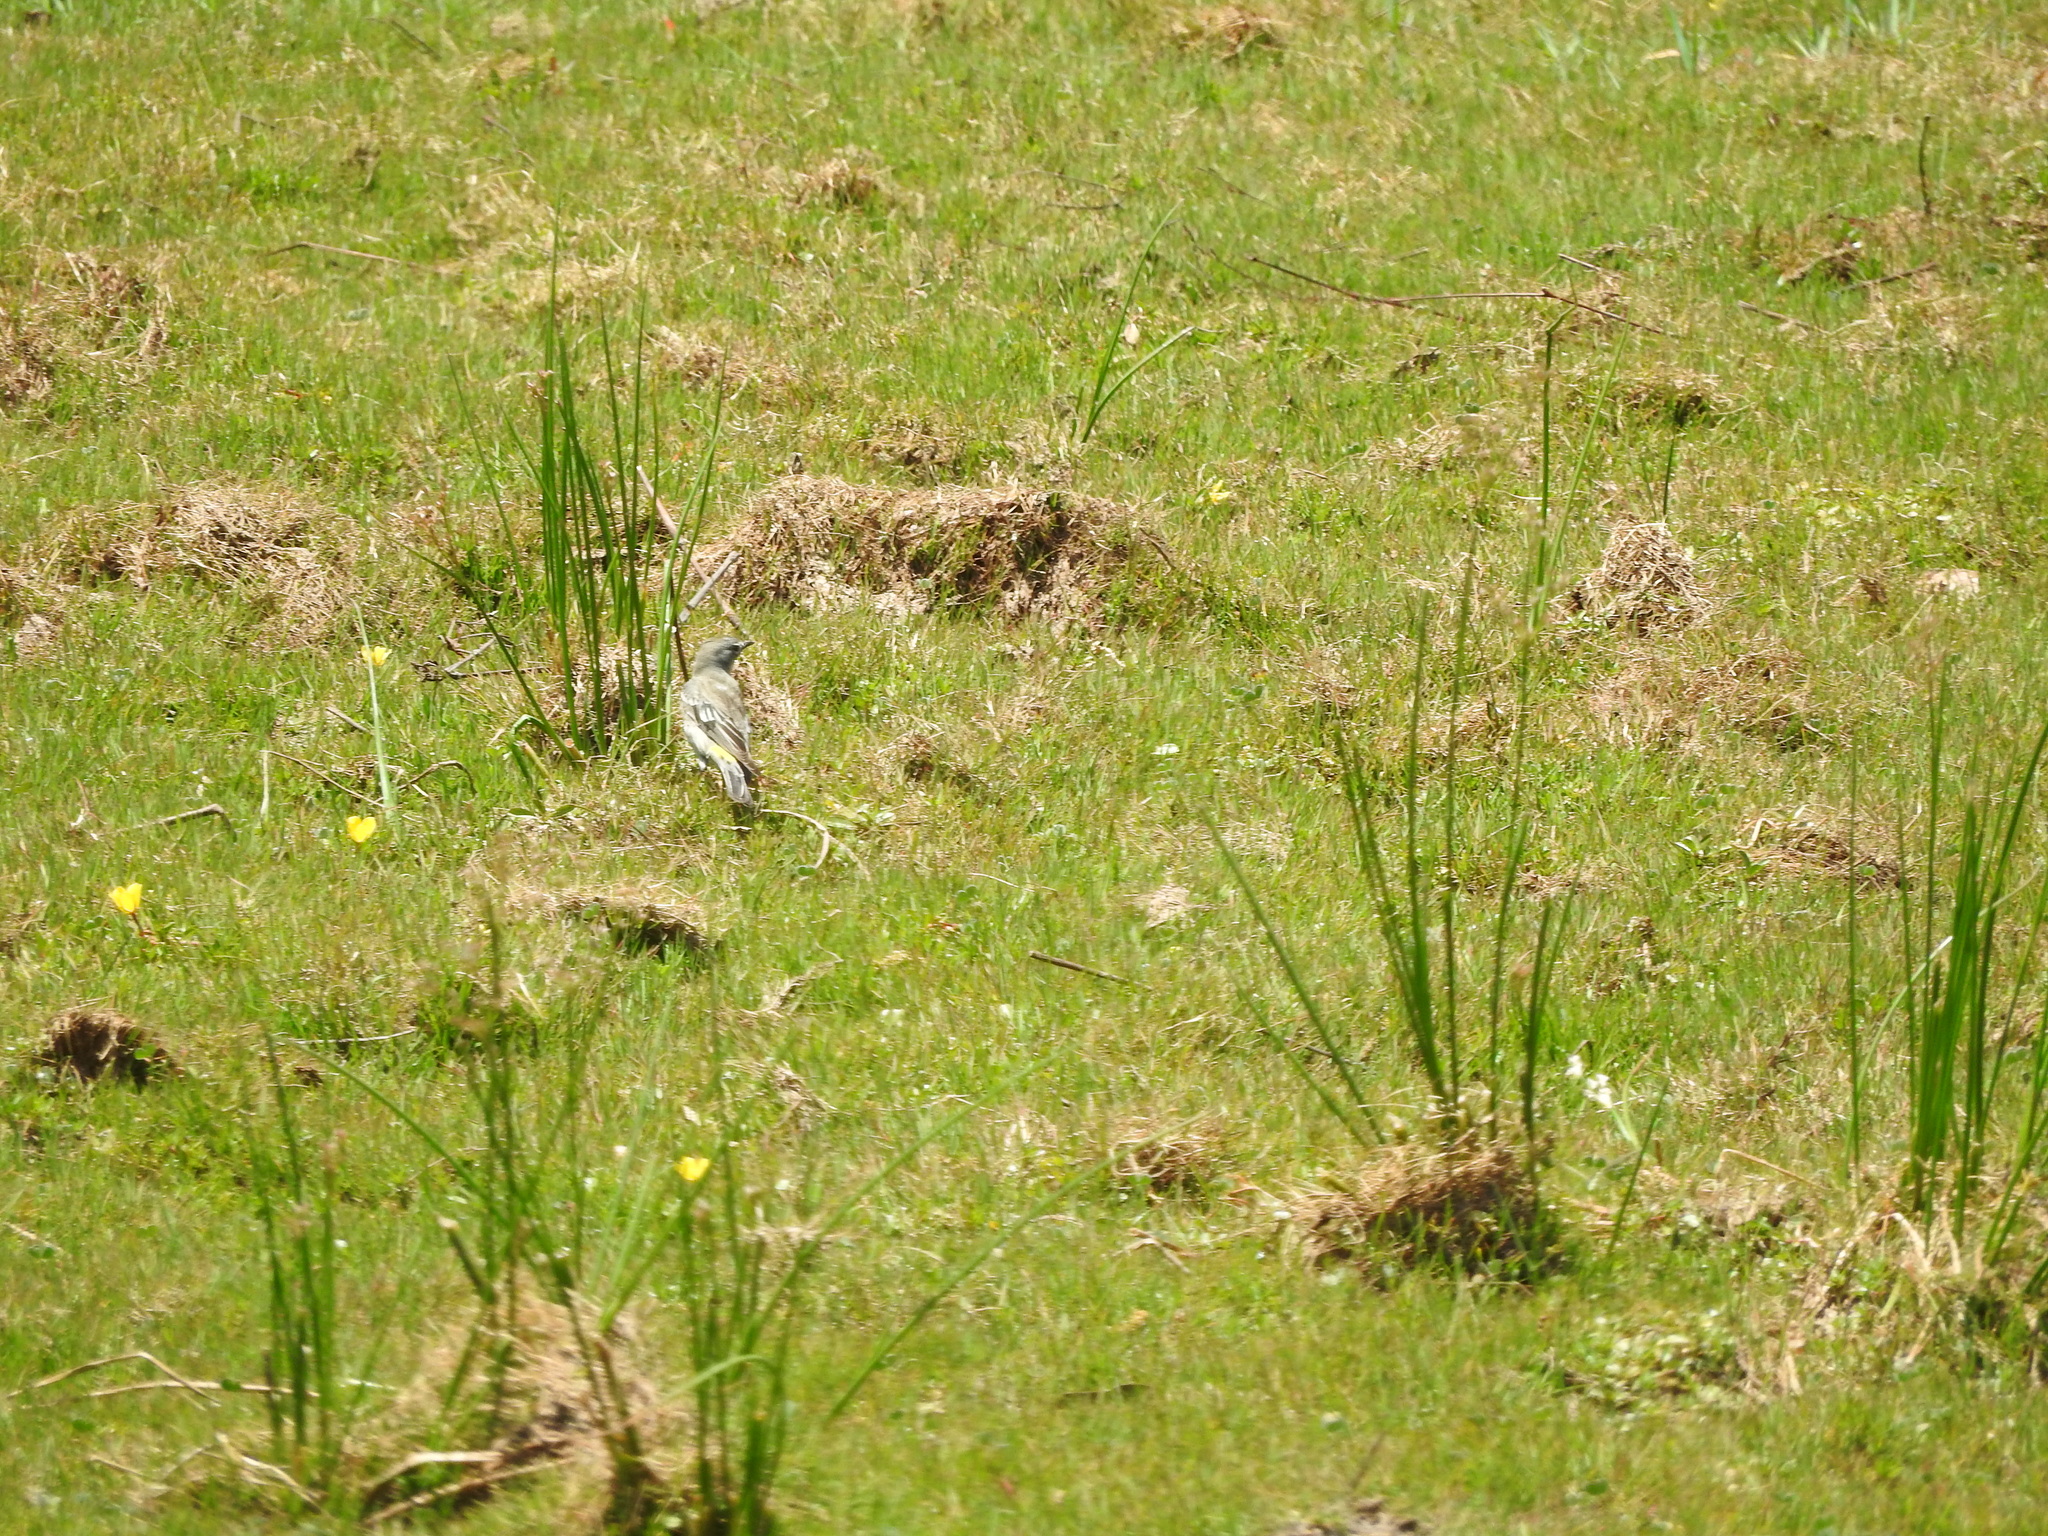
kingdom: Animalia
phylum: Chordata
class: Aves
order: Passeriformes
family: Parulidae
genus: Setophaga
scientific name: Setophaga coronata
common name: Myrtle warbler
